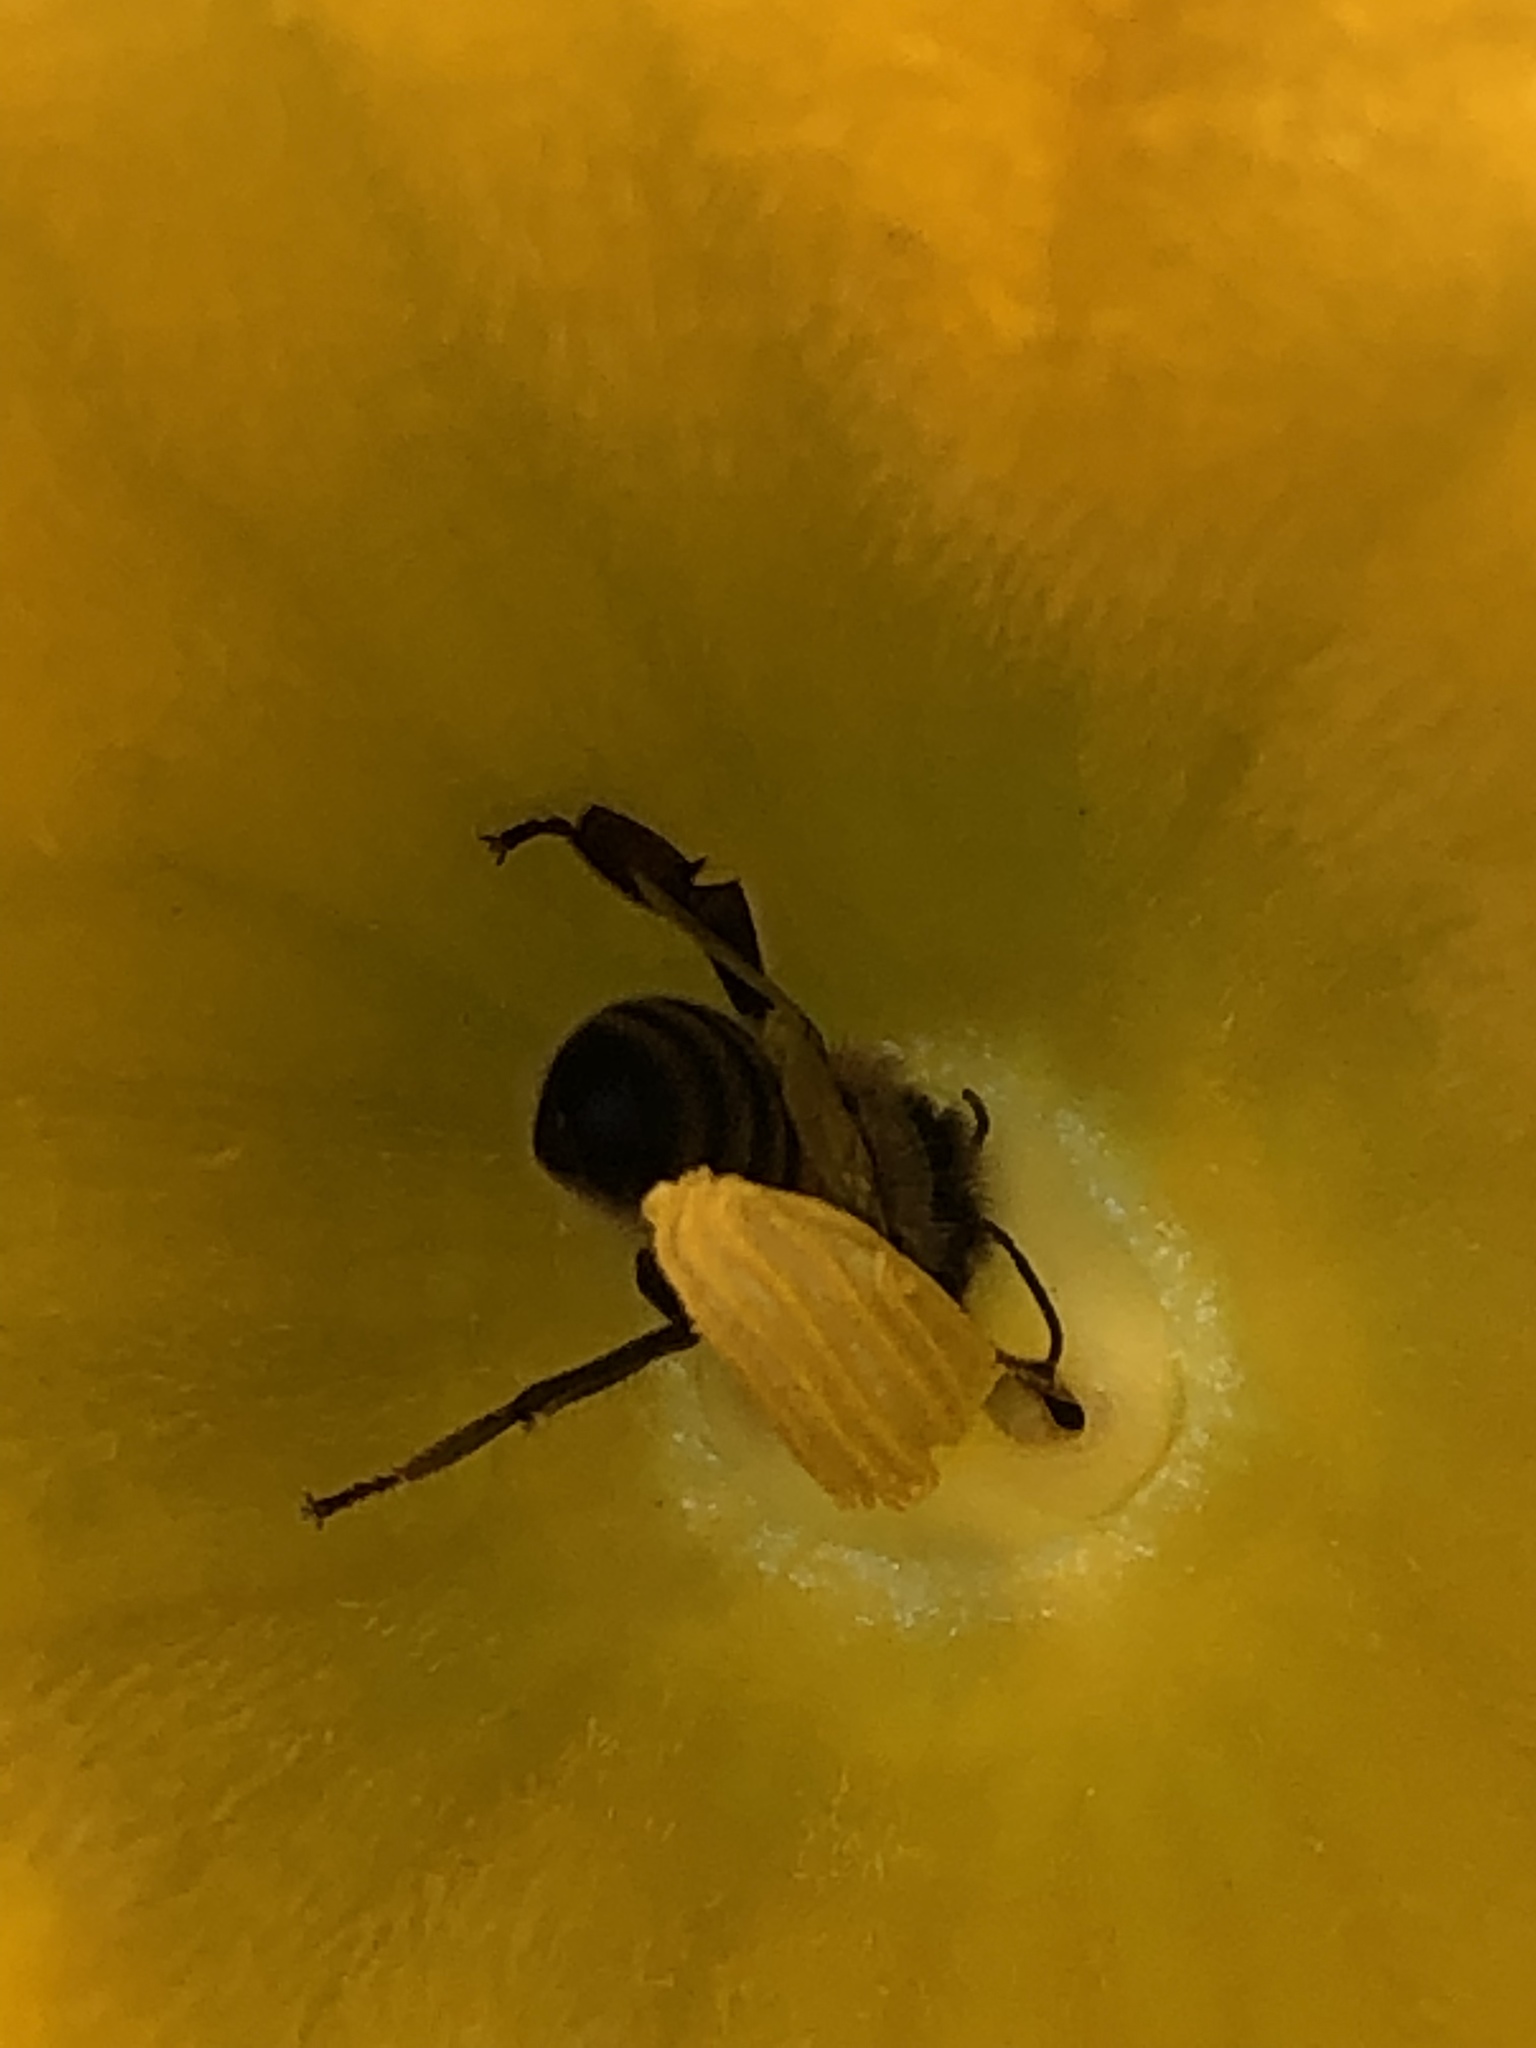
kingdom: Animalia
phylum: Arthropoda
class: Insecta
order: Hymenoptera
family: Apidae
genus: Apis
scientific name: Apis mellifera
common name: Honey bee
